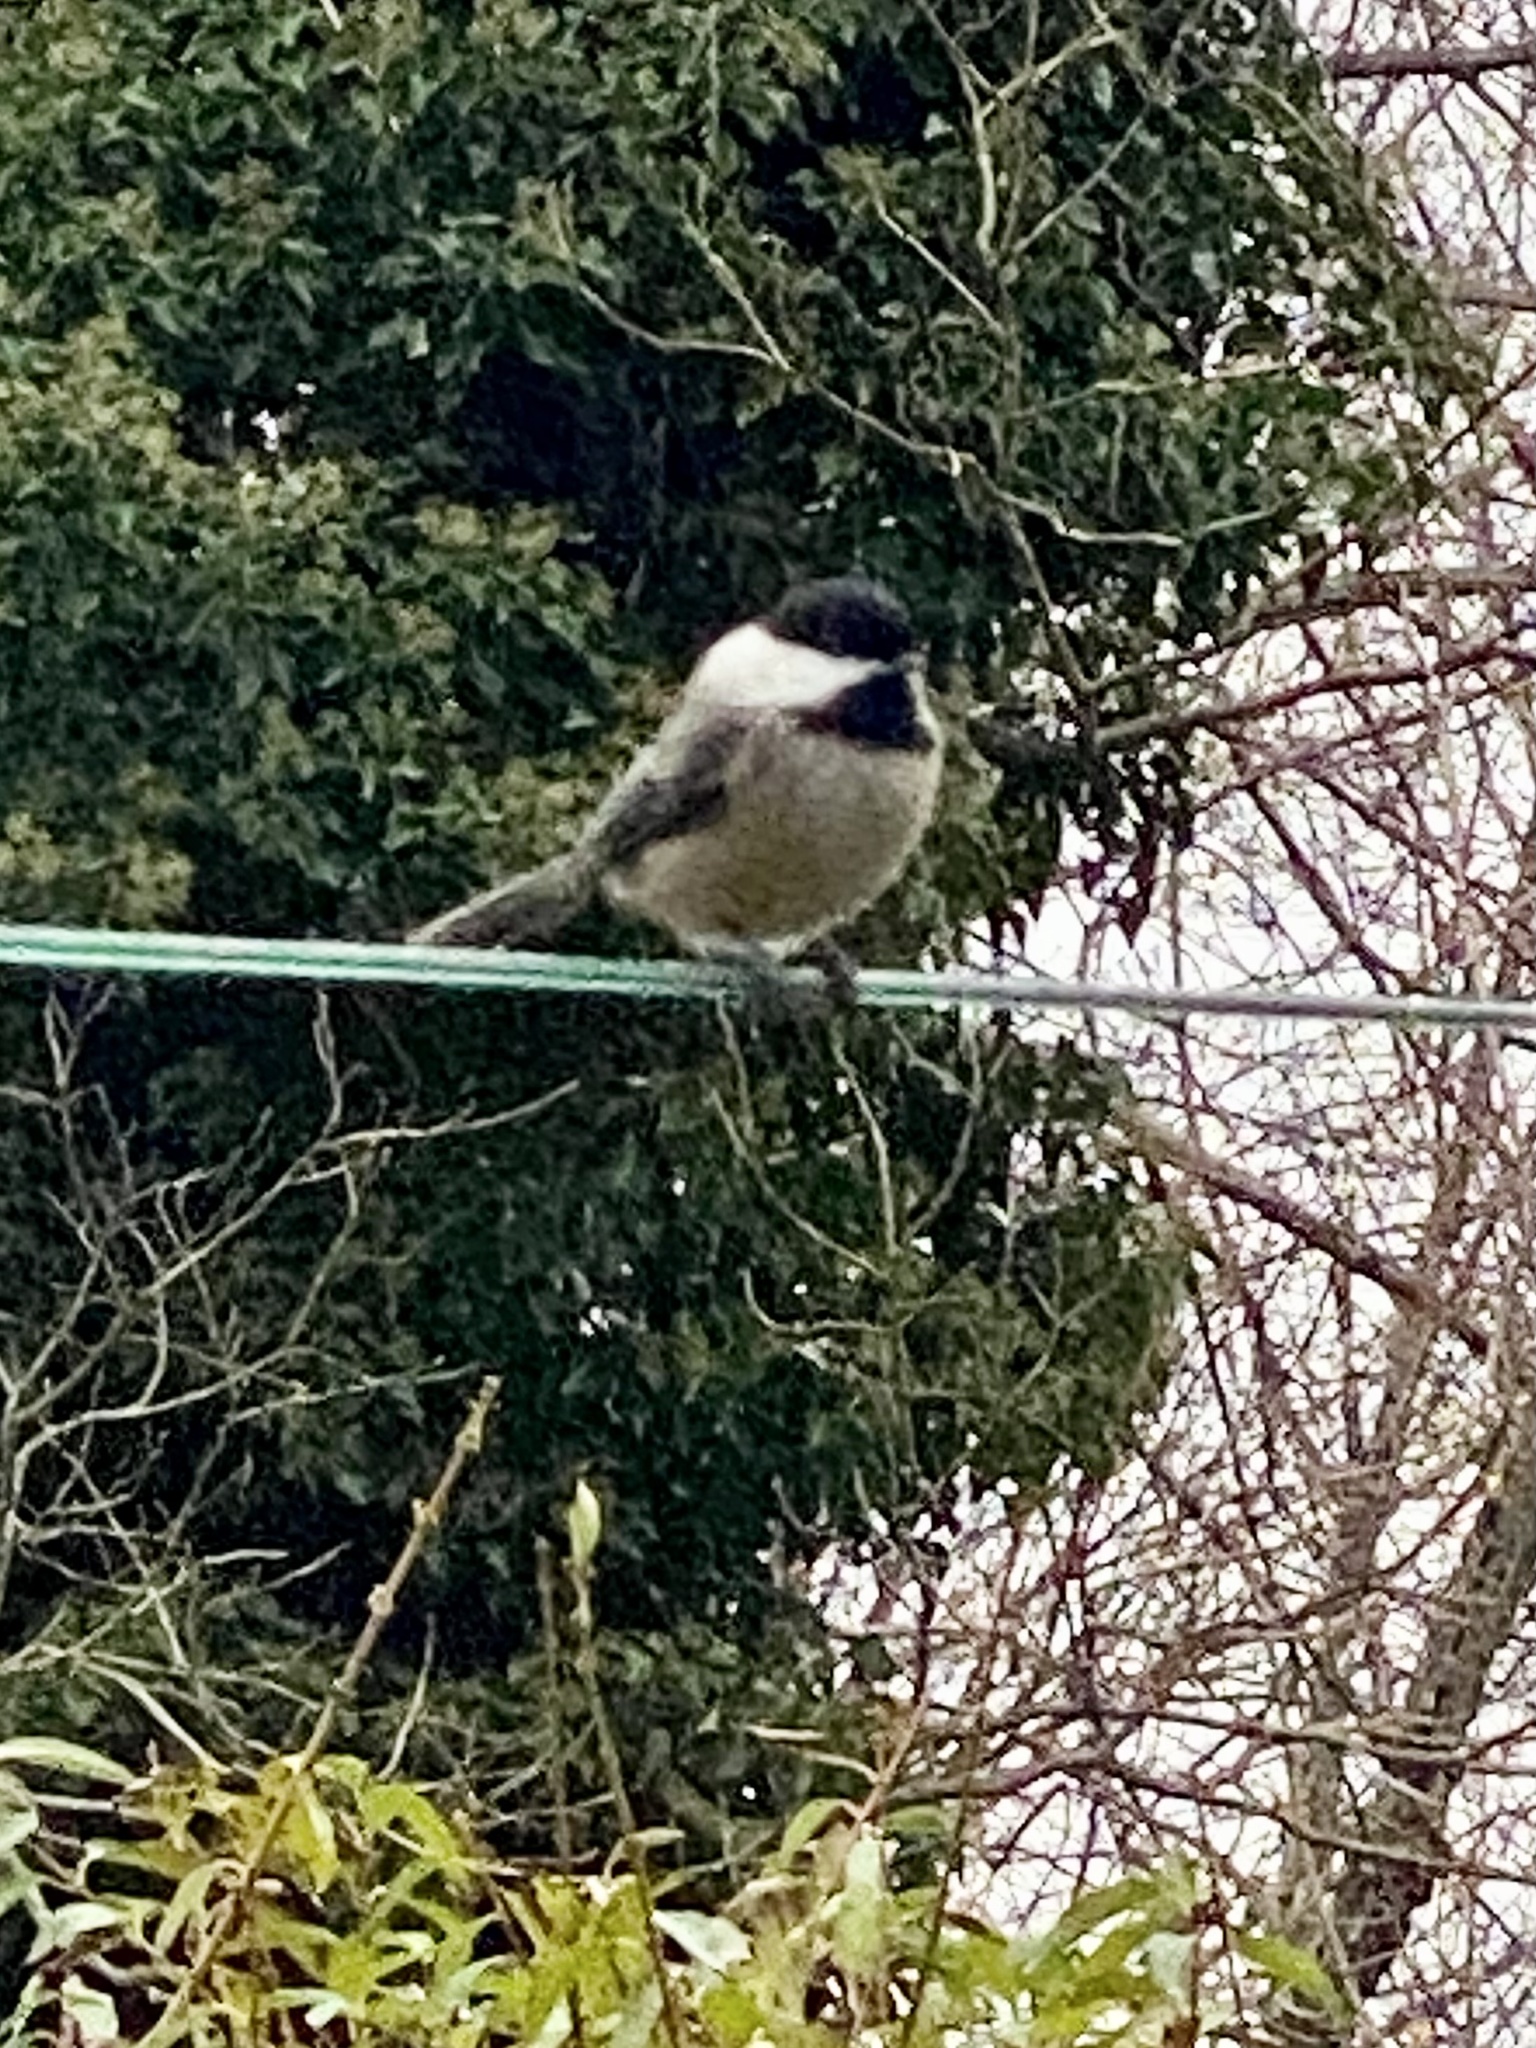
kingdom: Animalia
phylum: Chordata
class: Aves
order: Passeriformes
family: Paridae
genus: Poecile
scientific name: Poecile atricapillus
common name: Black-capped chickadee
